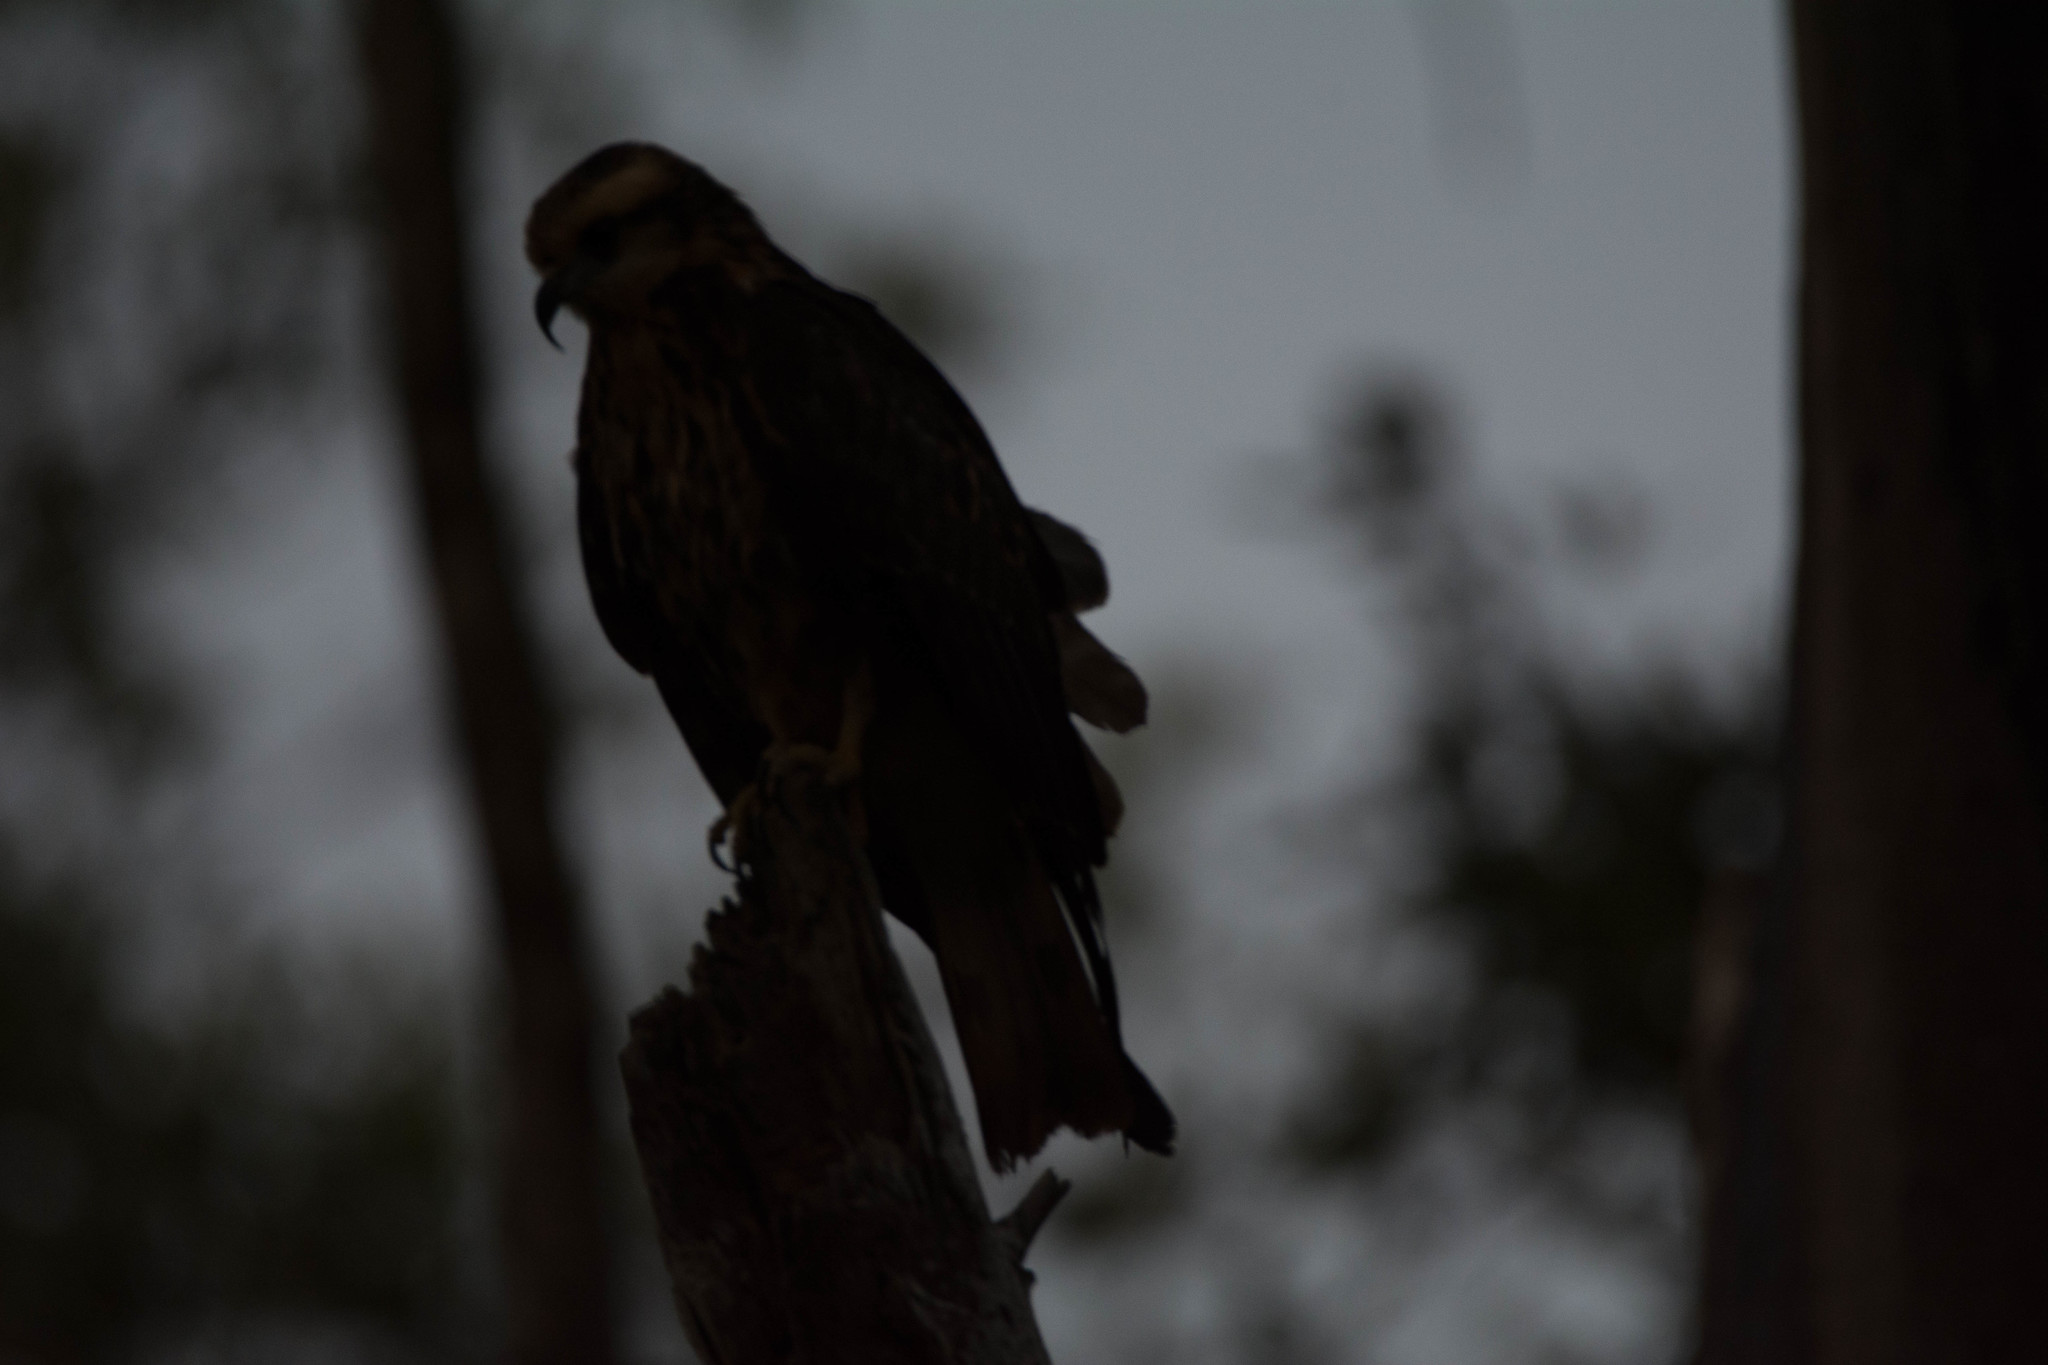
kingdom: Animalia
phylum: Chordata
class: Aves
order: Accipitriformes
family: Accipitridae
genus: Rostrhamus
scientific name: Rostrhamus sociabilis
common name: Snail kite
